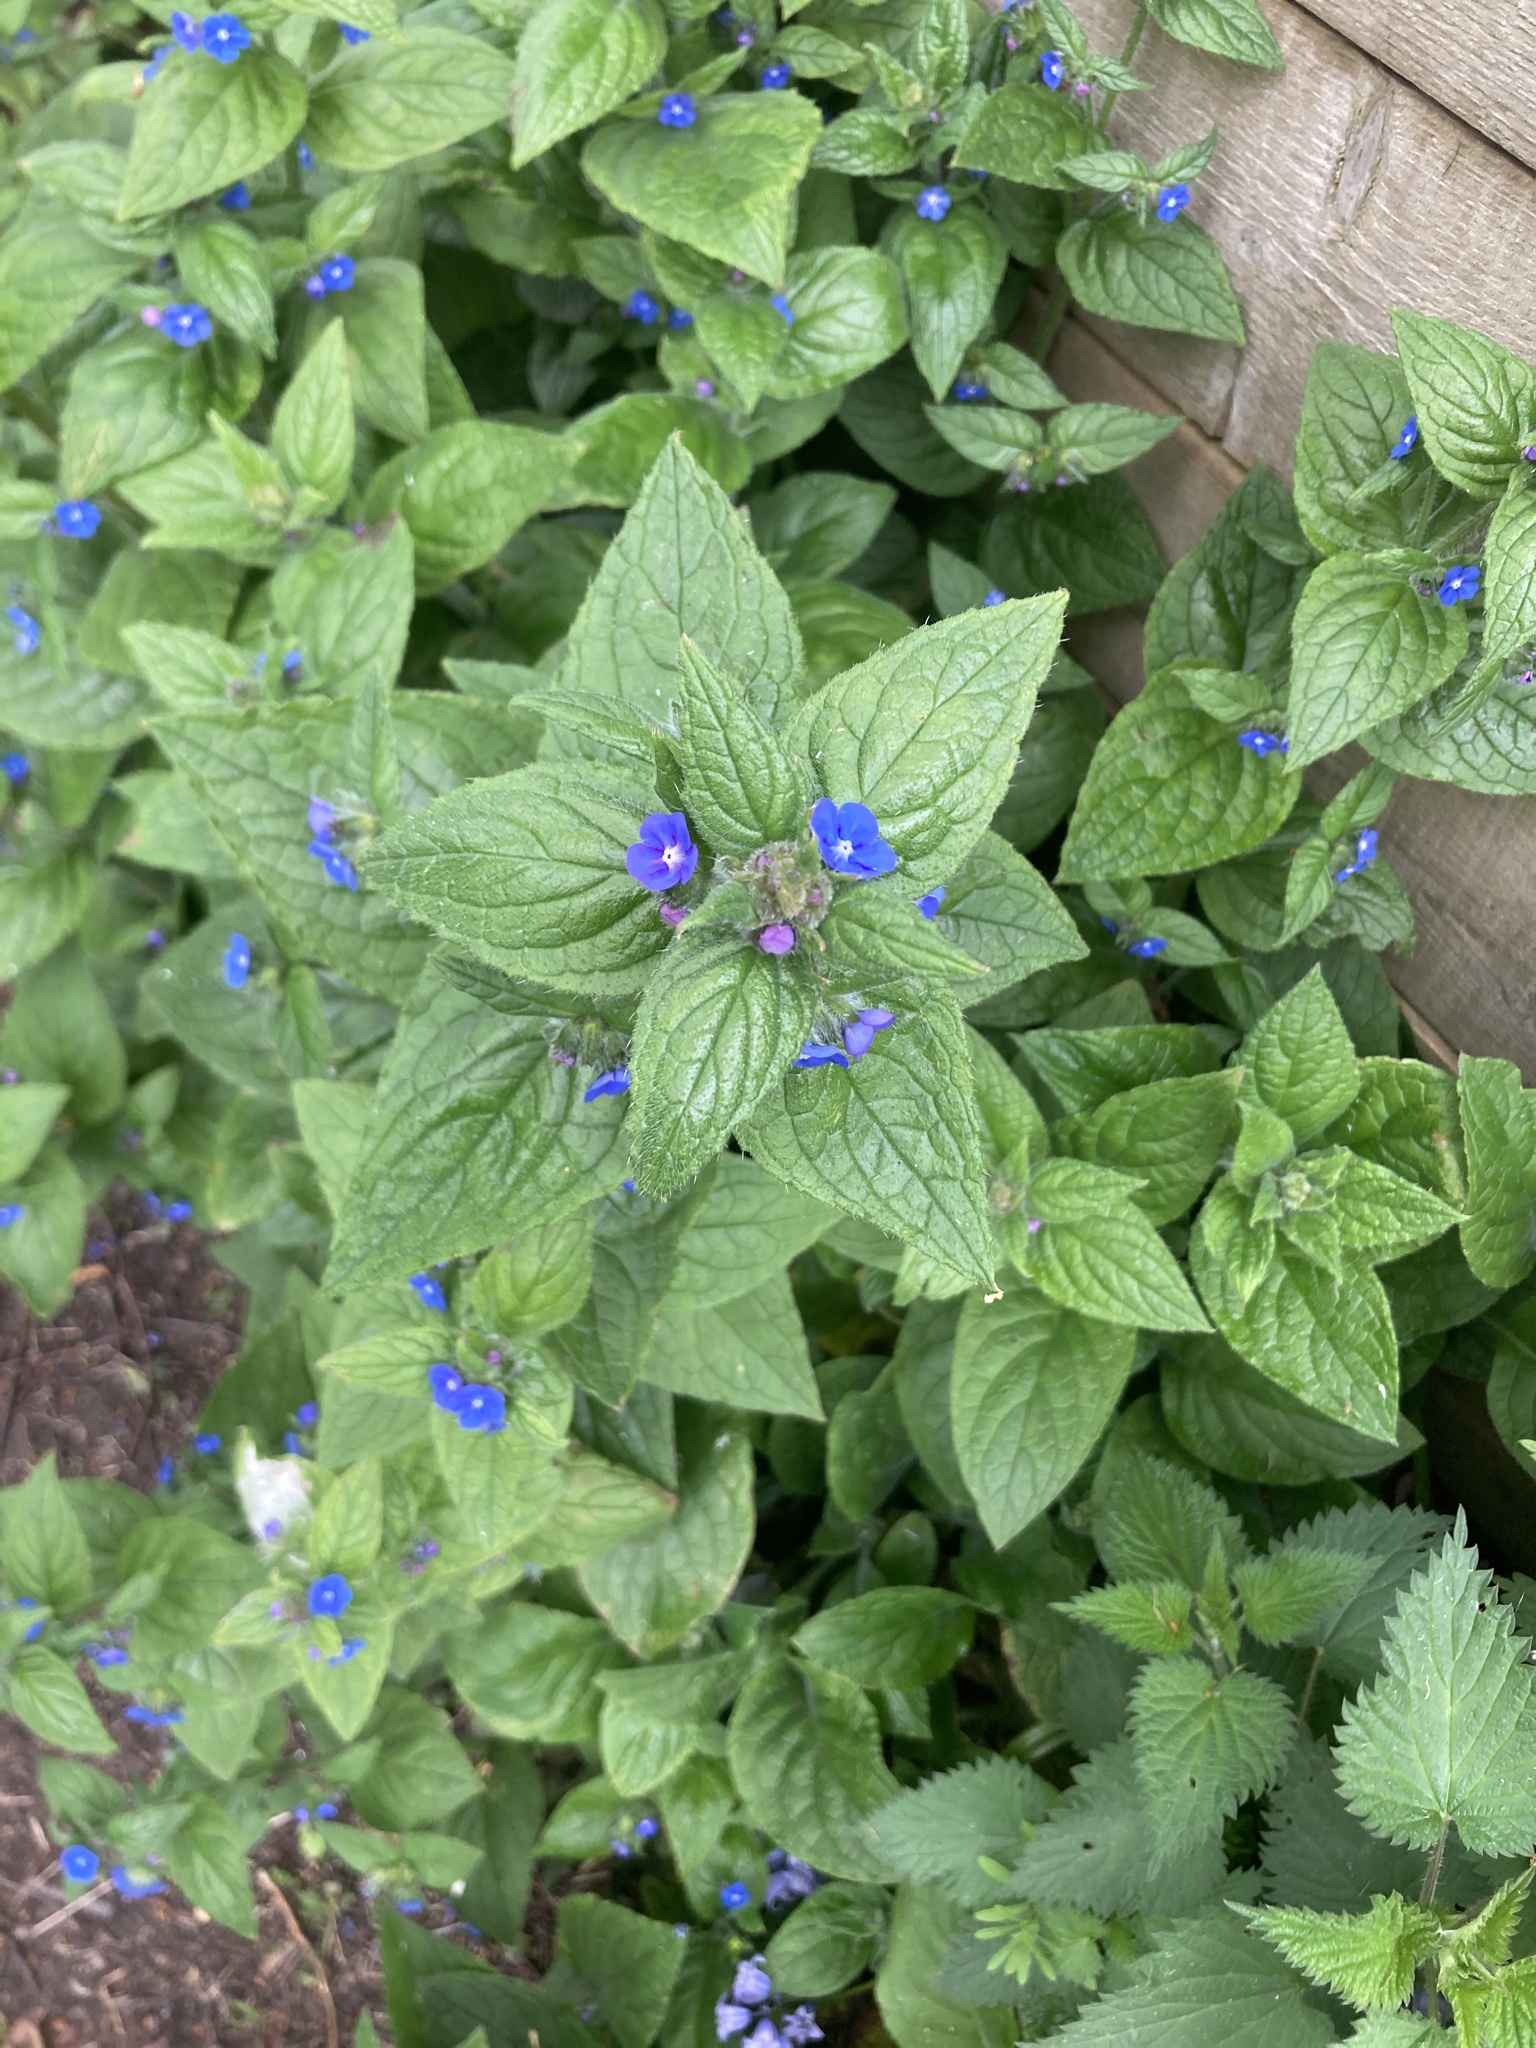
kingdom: Plantae
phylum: Tracheophyta
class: Magnoliopsida
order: Boraginales
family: Boraginaceae
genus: Pentaglottis
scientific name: Pentaglottis sempervirens
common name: Green alkanet
